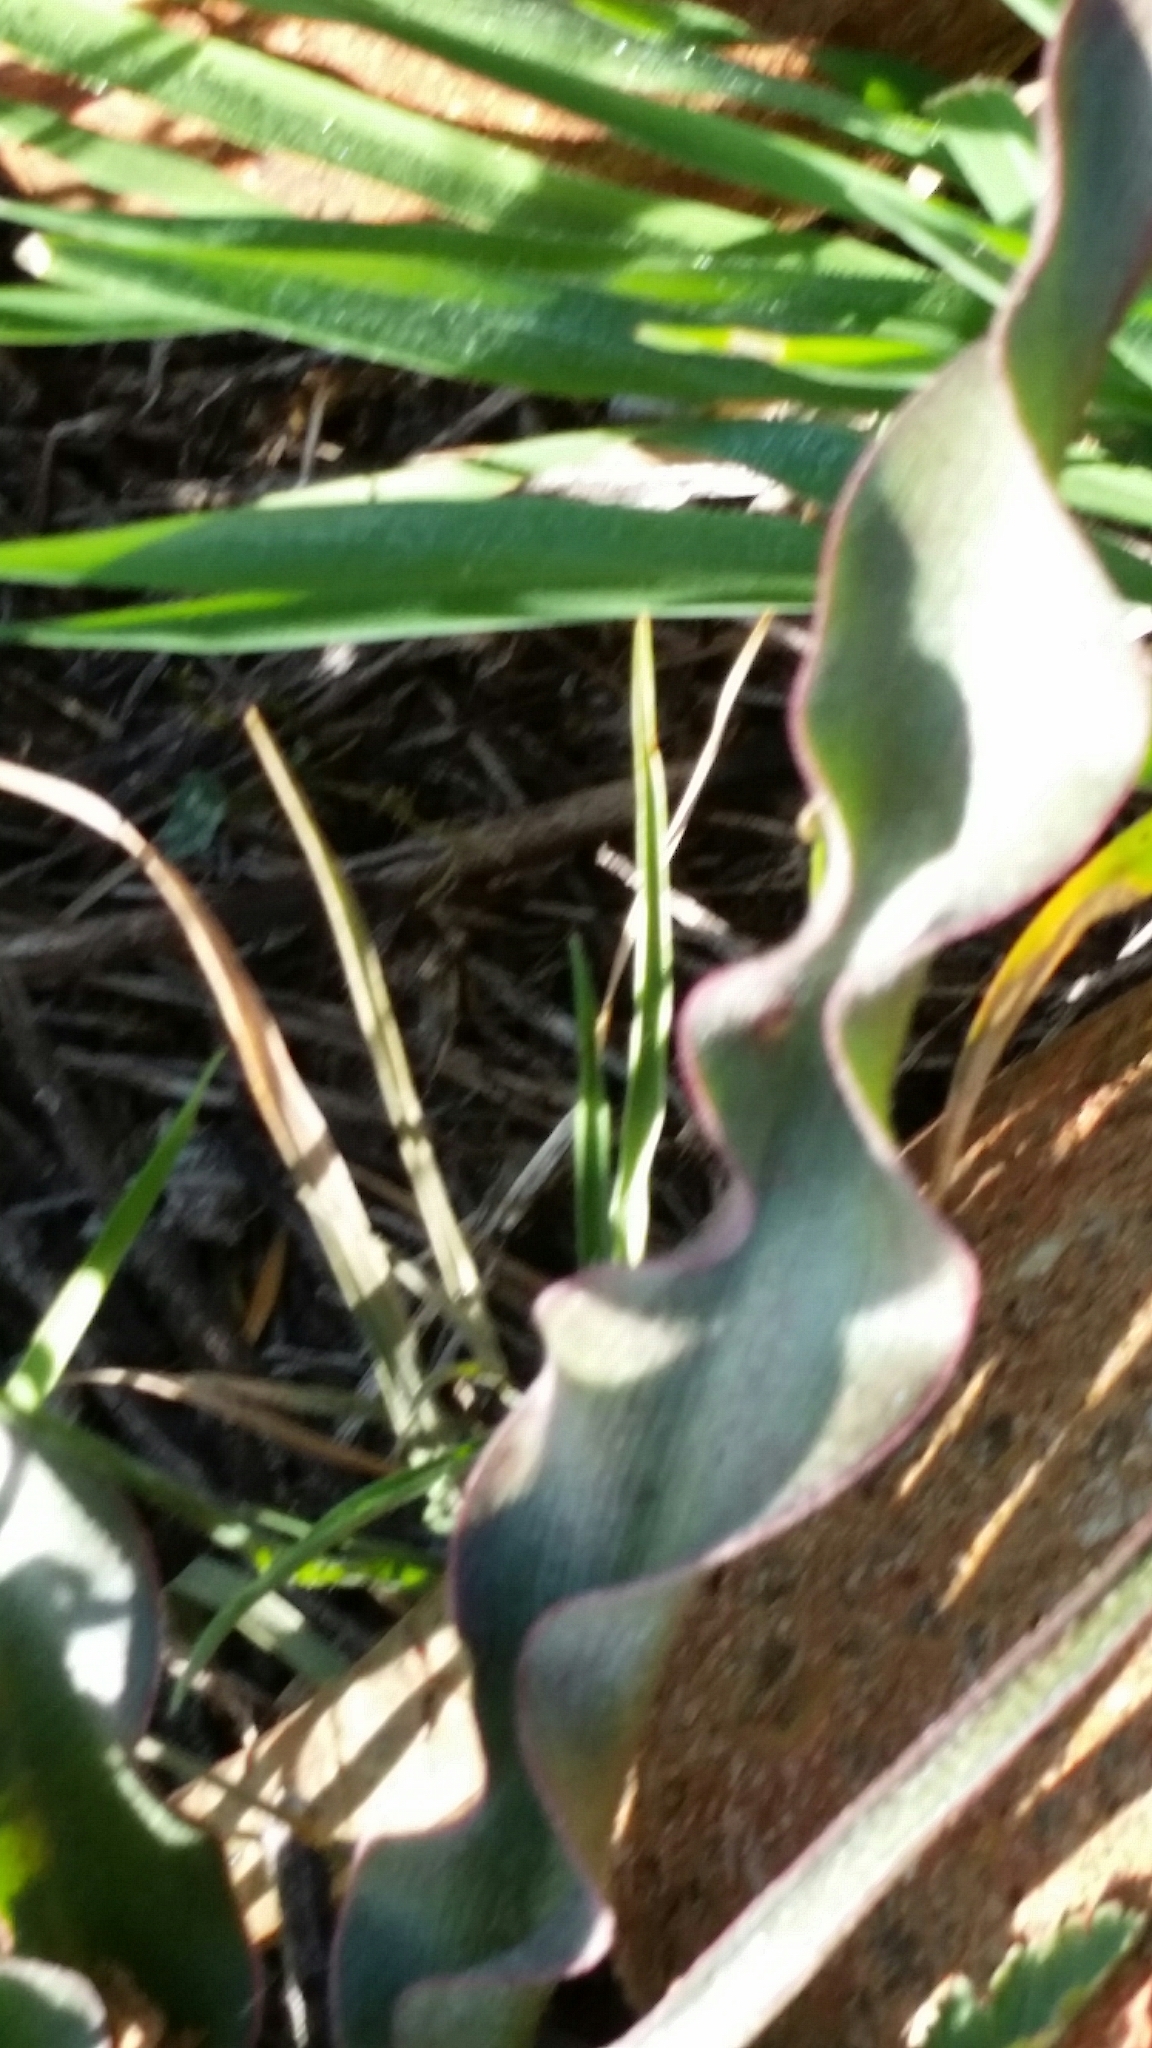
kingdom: Plantae
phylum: Tracheophyta
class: Liliopsida
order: Asparagales
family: Asparagaceae
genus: Hooveria
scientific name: Hooveria parviflora
